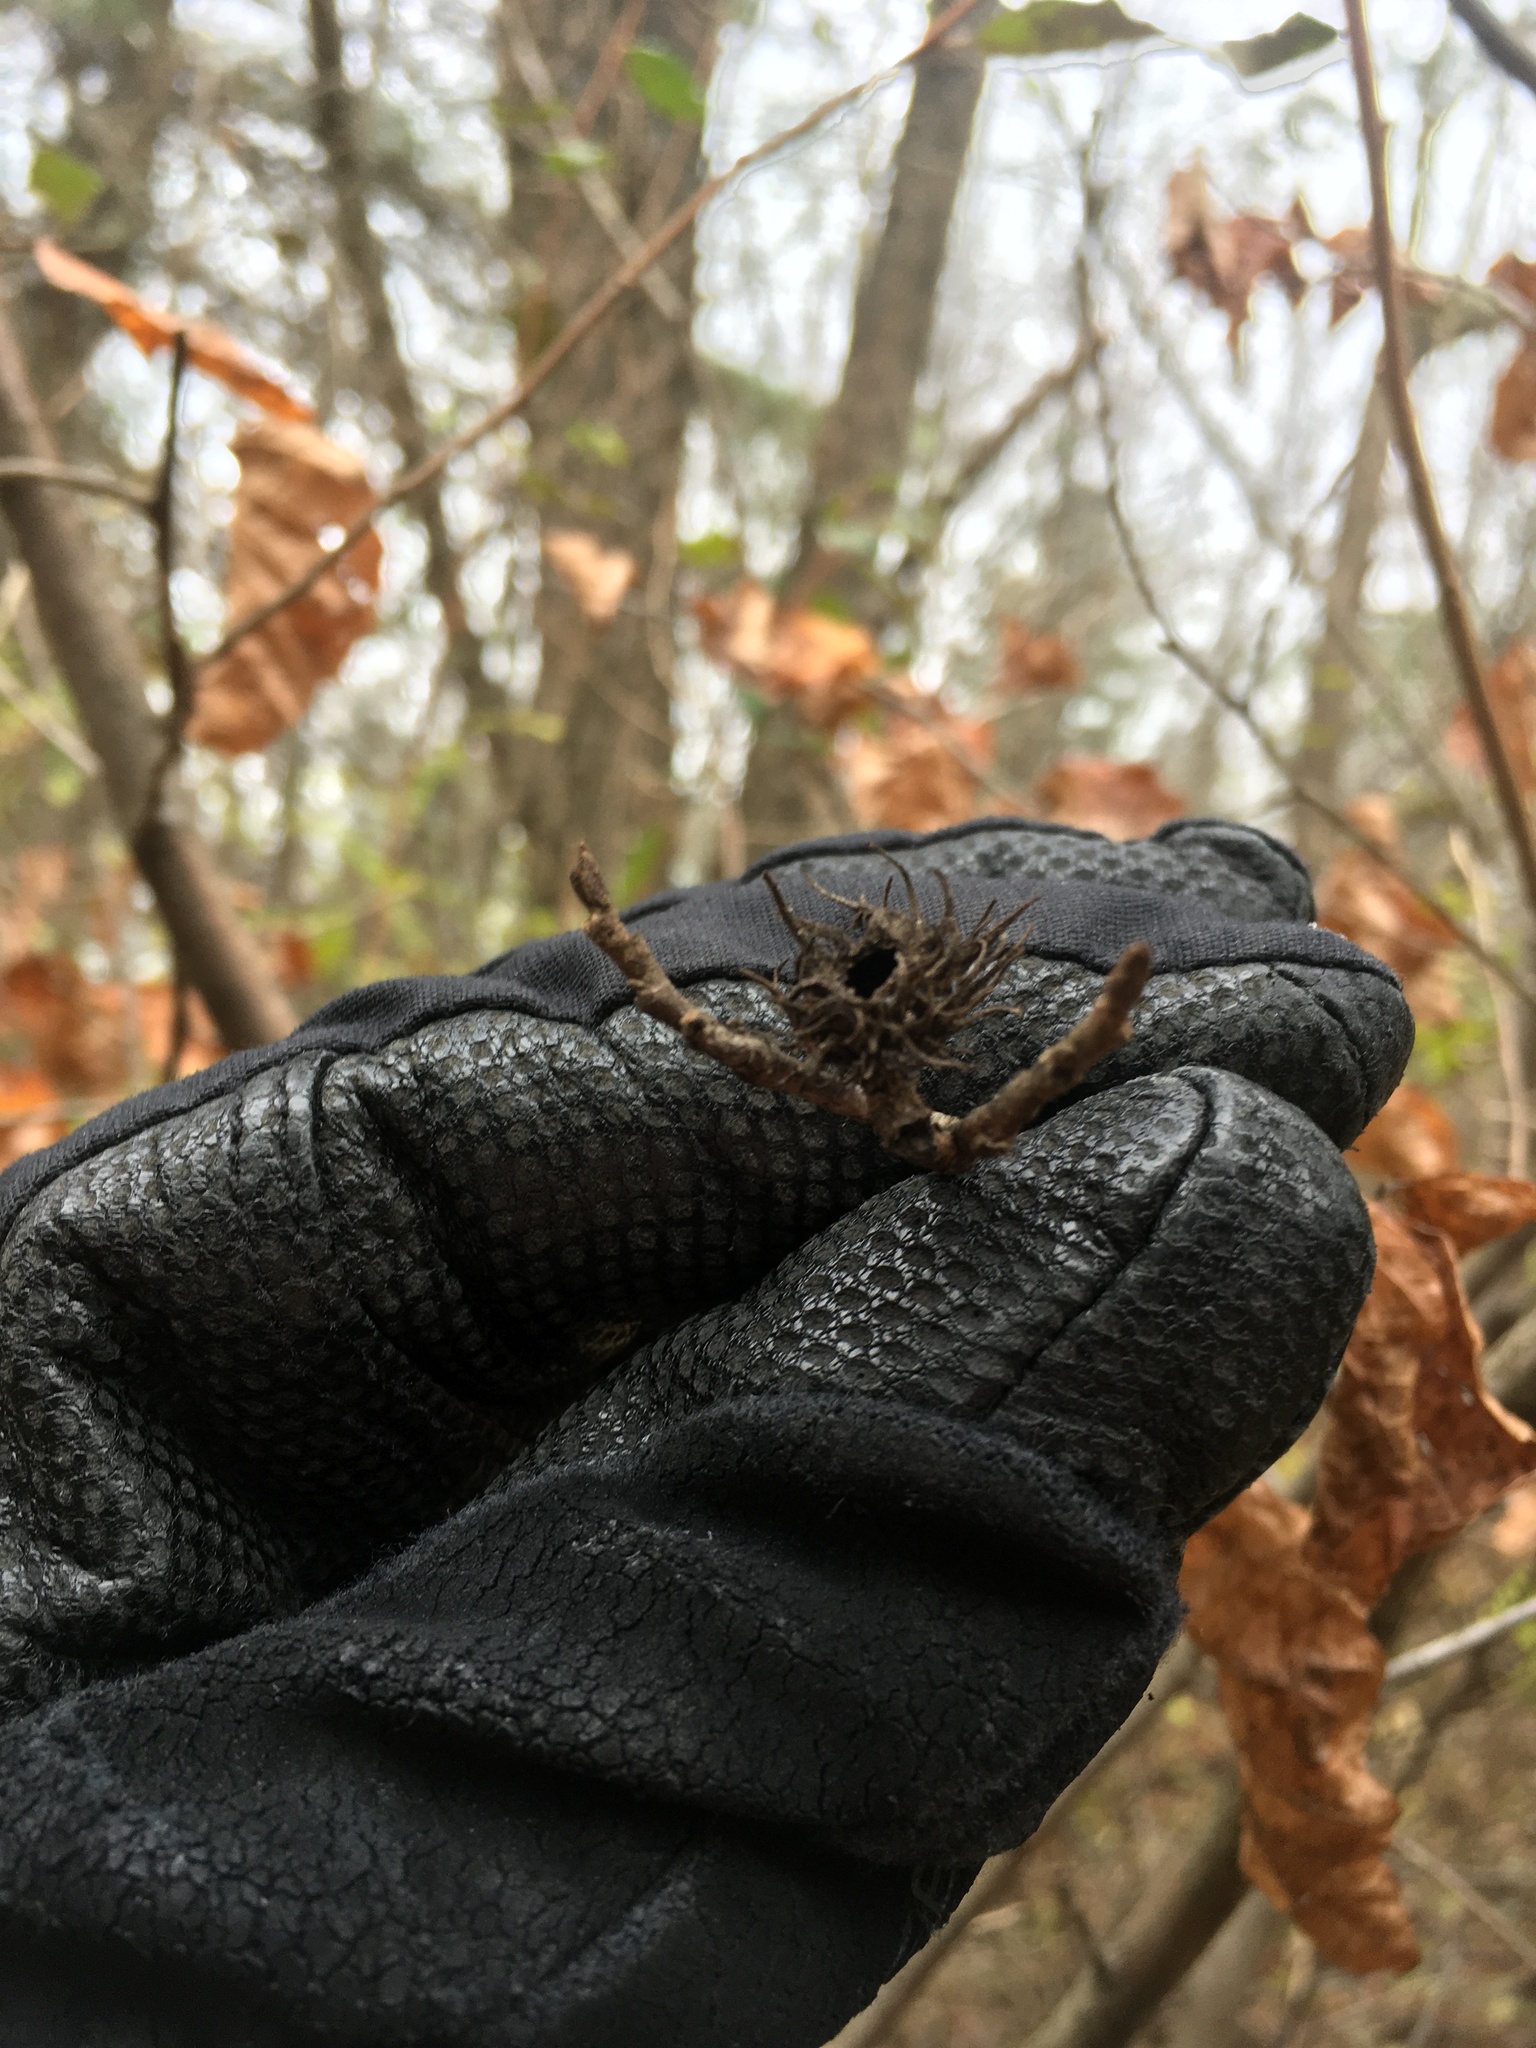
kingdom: Animalia
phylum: Arthropoda
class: Insecta
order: Hemiptera
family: Aphididae
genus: Hamamelistes
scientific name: Hamamelistes spinosus
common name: Witch hazel gall aphid
